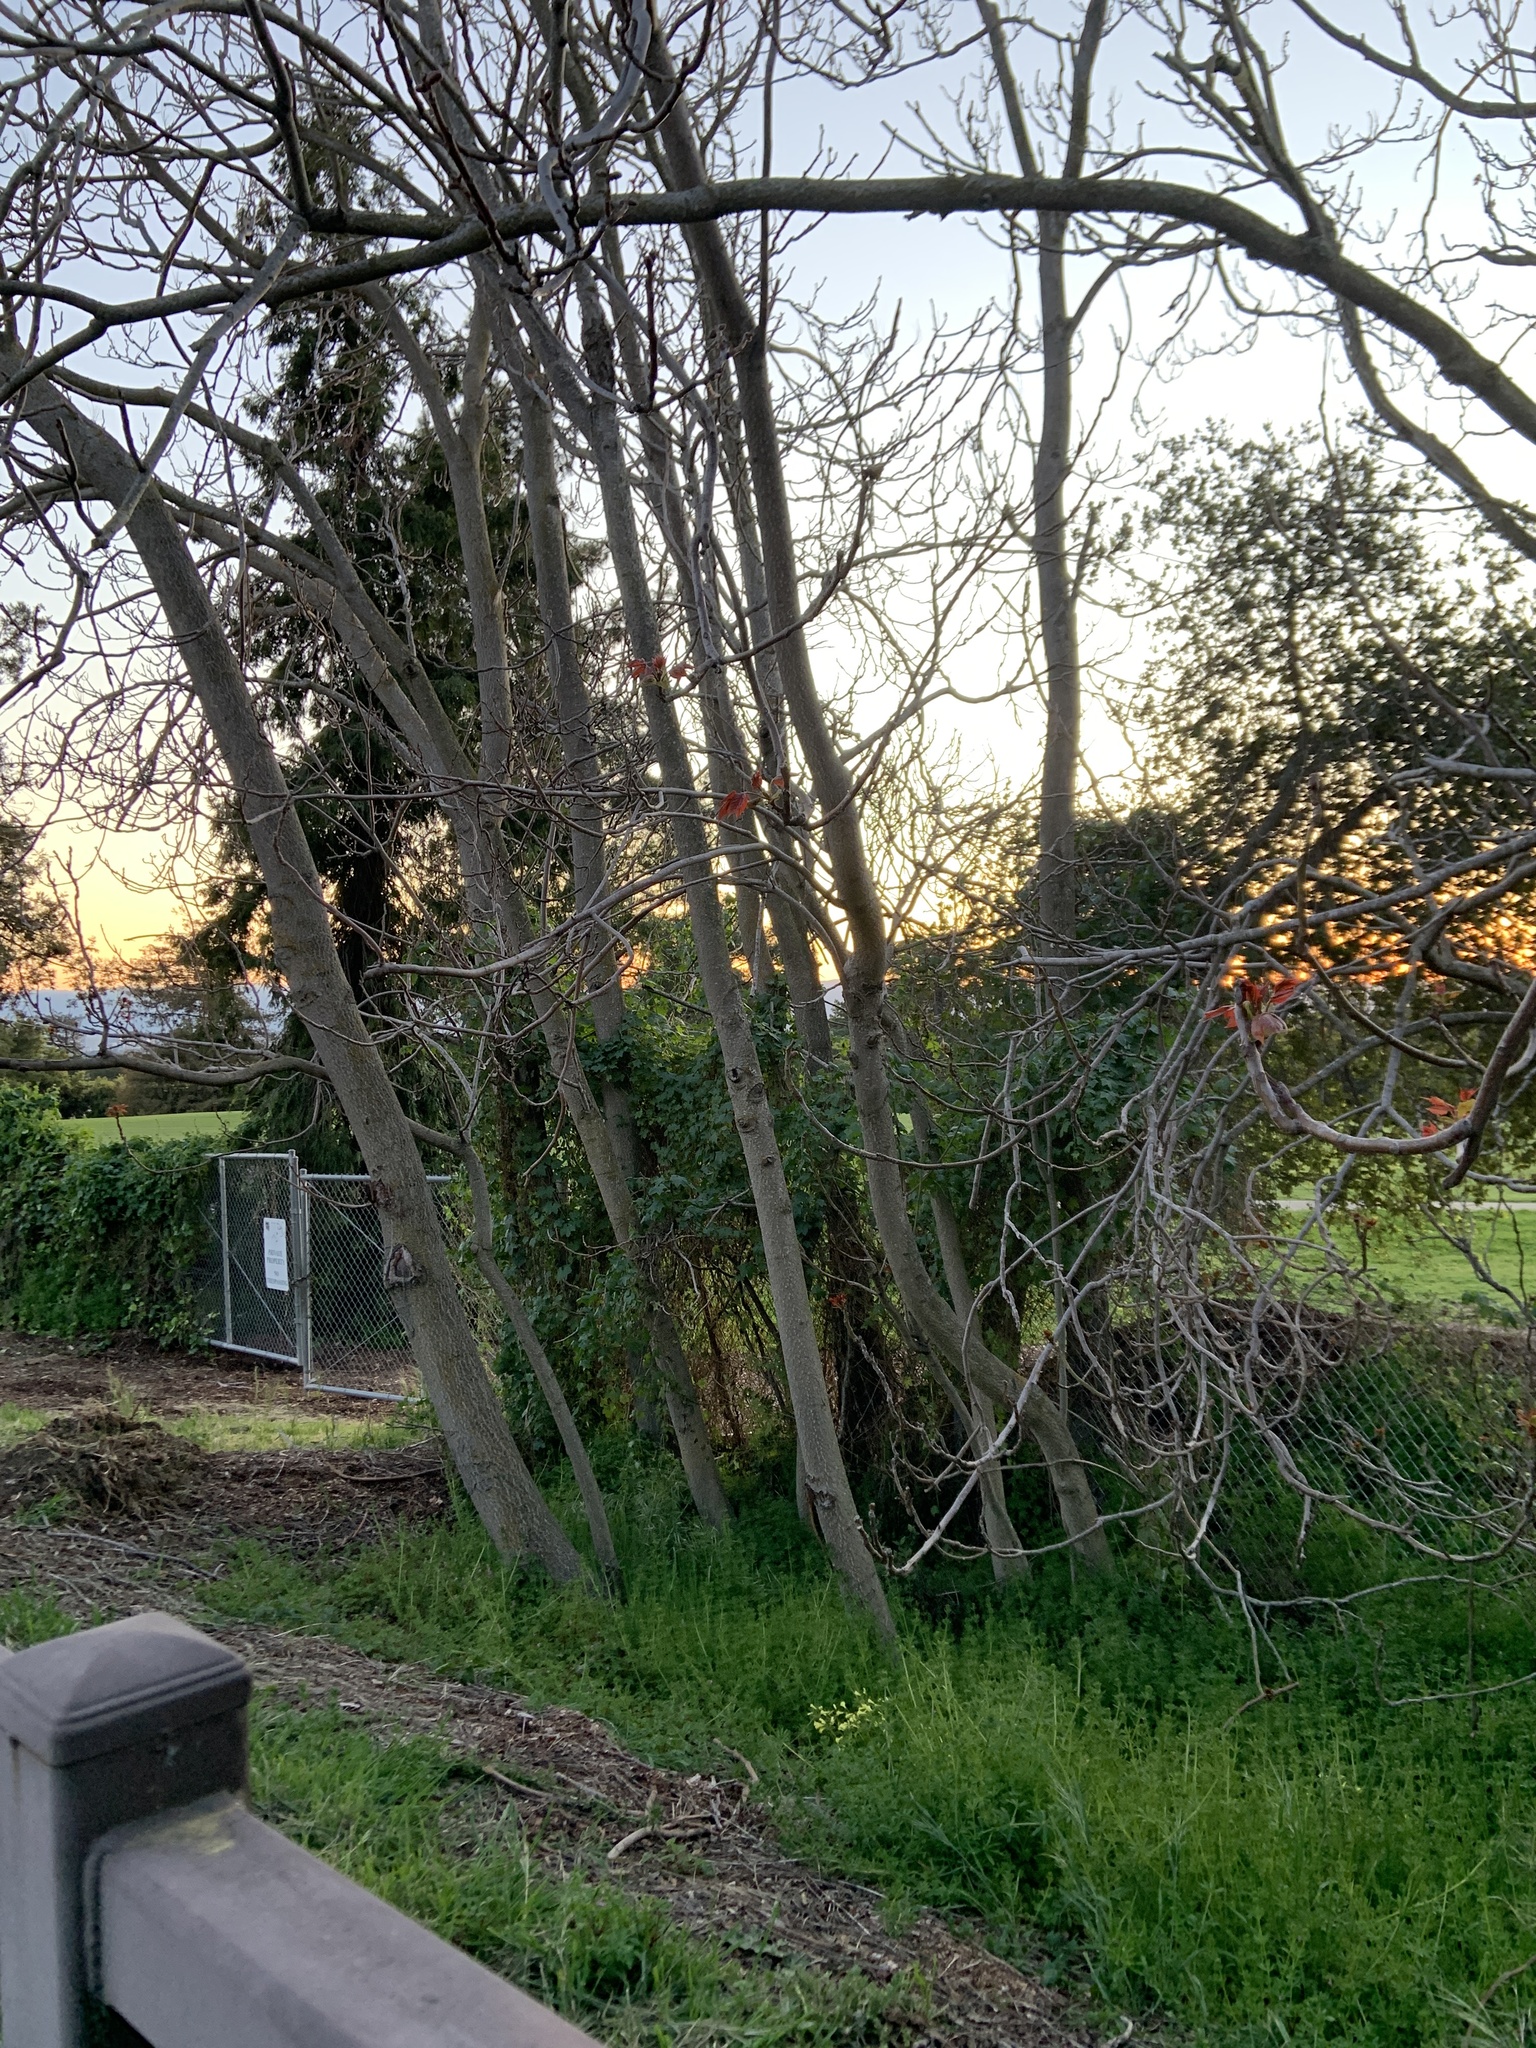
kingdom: Plantae
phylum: Tracheophyta
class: Magnoliopsida
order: Sapindales
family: Simaroubaceae
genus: Ailanthus
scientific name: Ailanthus altissima
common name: Tree-of-heaven
